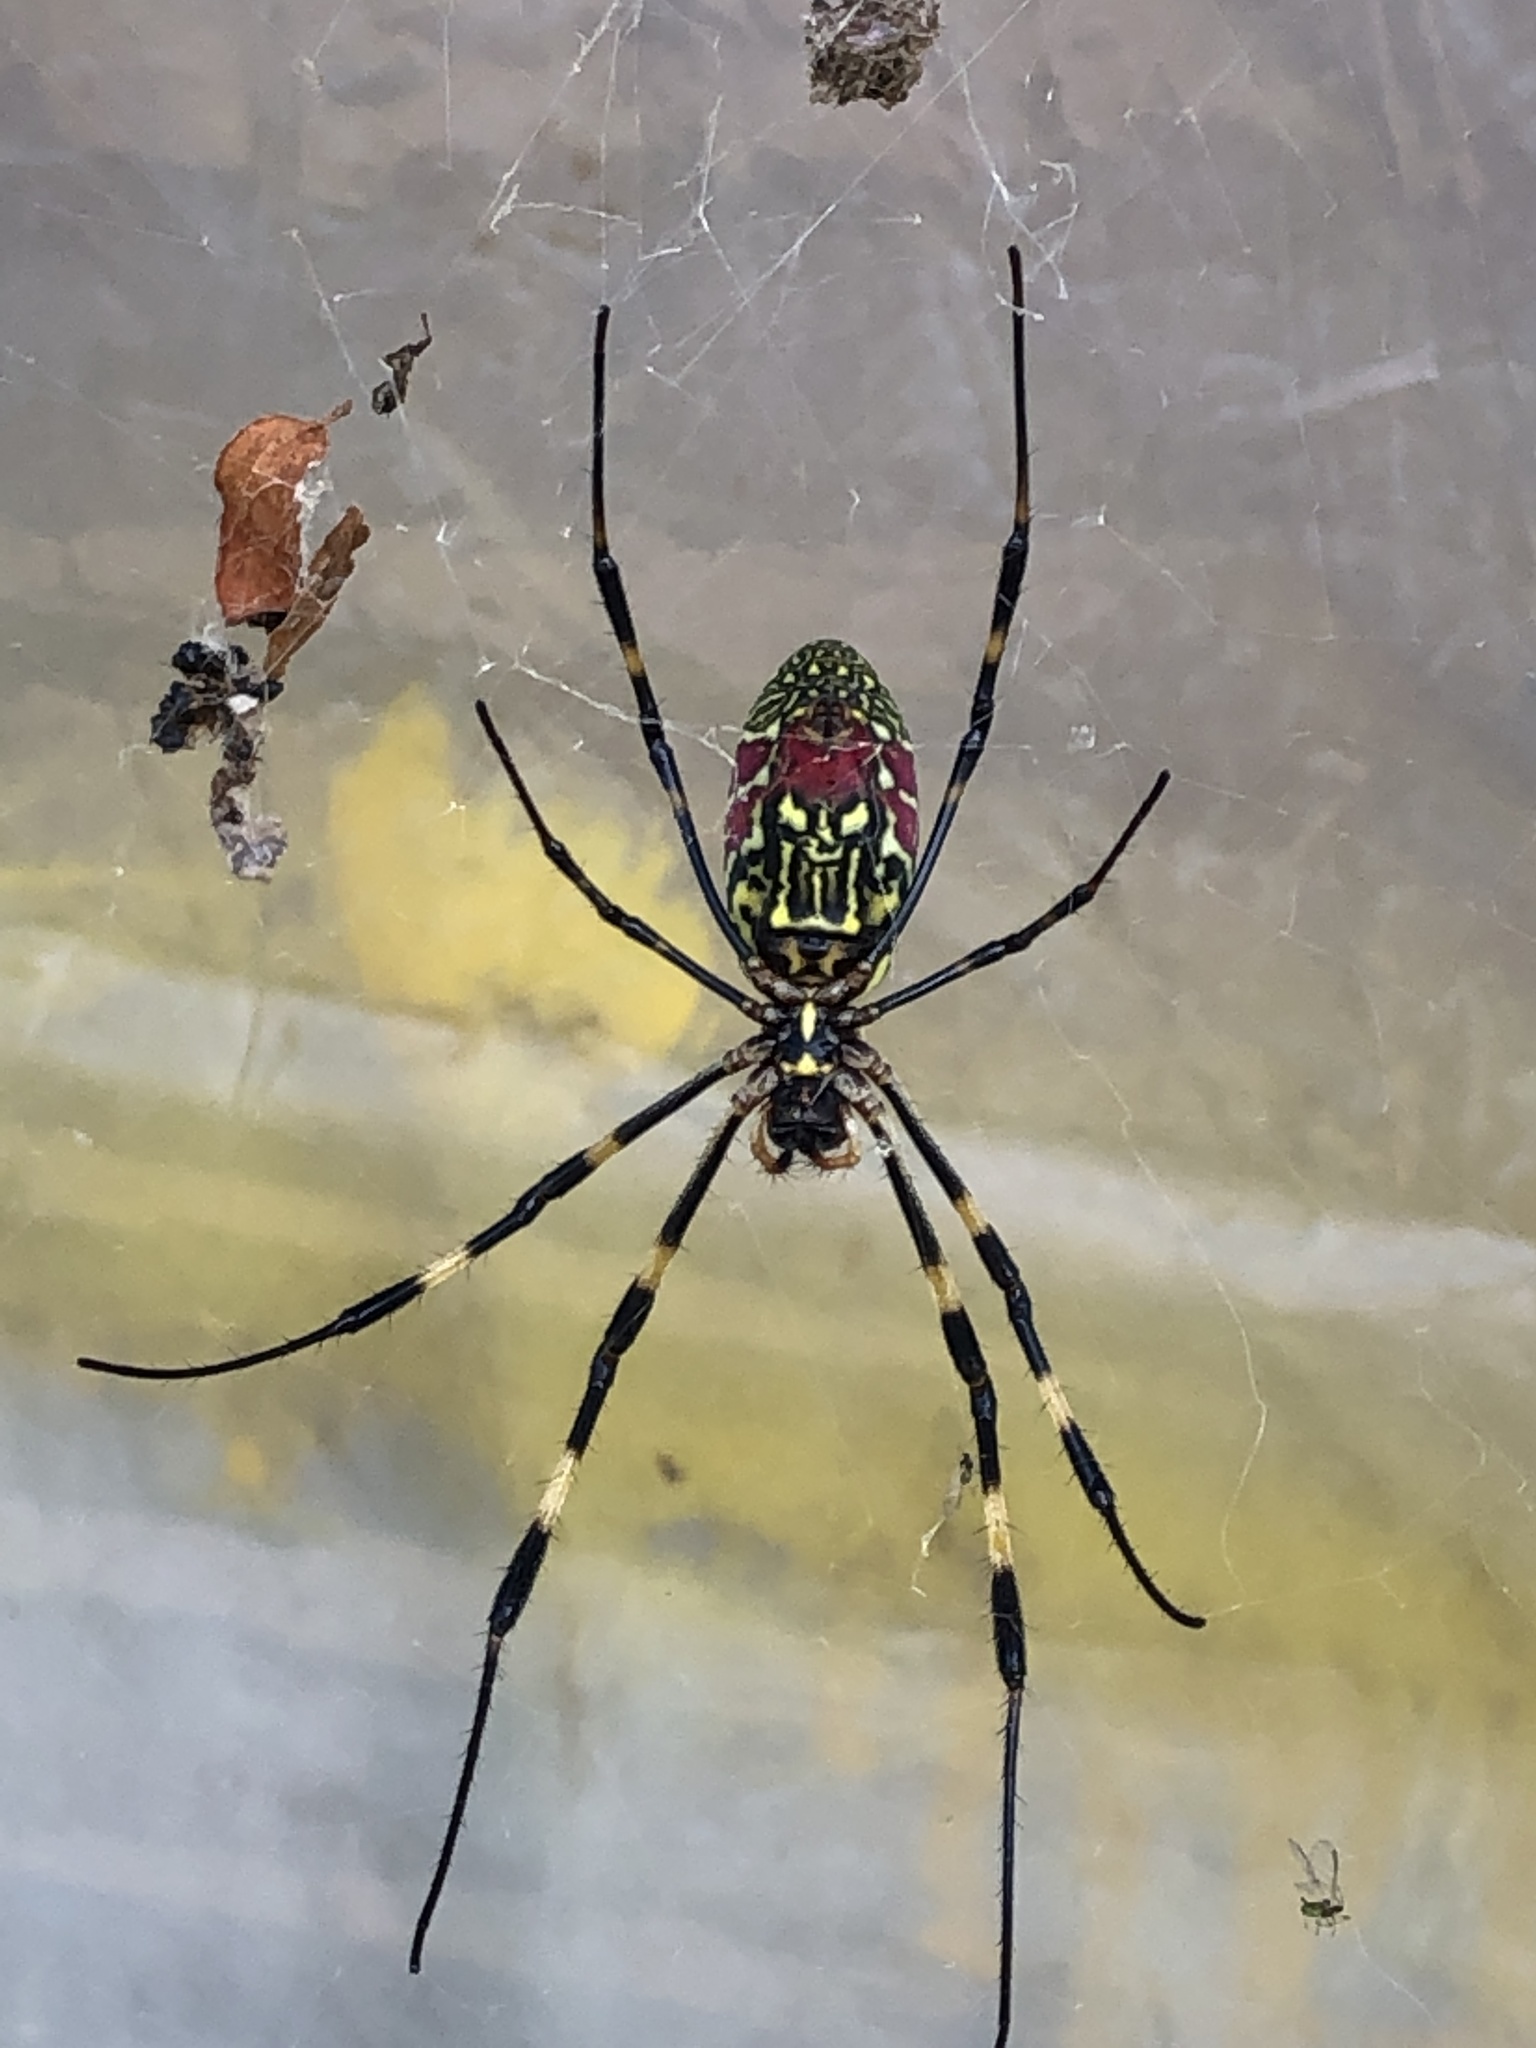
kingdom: Animalia
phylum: Arthropoda
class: Arachnida
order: Araneae
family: Araneidae
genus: Trichonephila
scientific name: Trichonephila clavata
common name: Jorō spider
